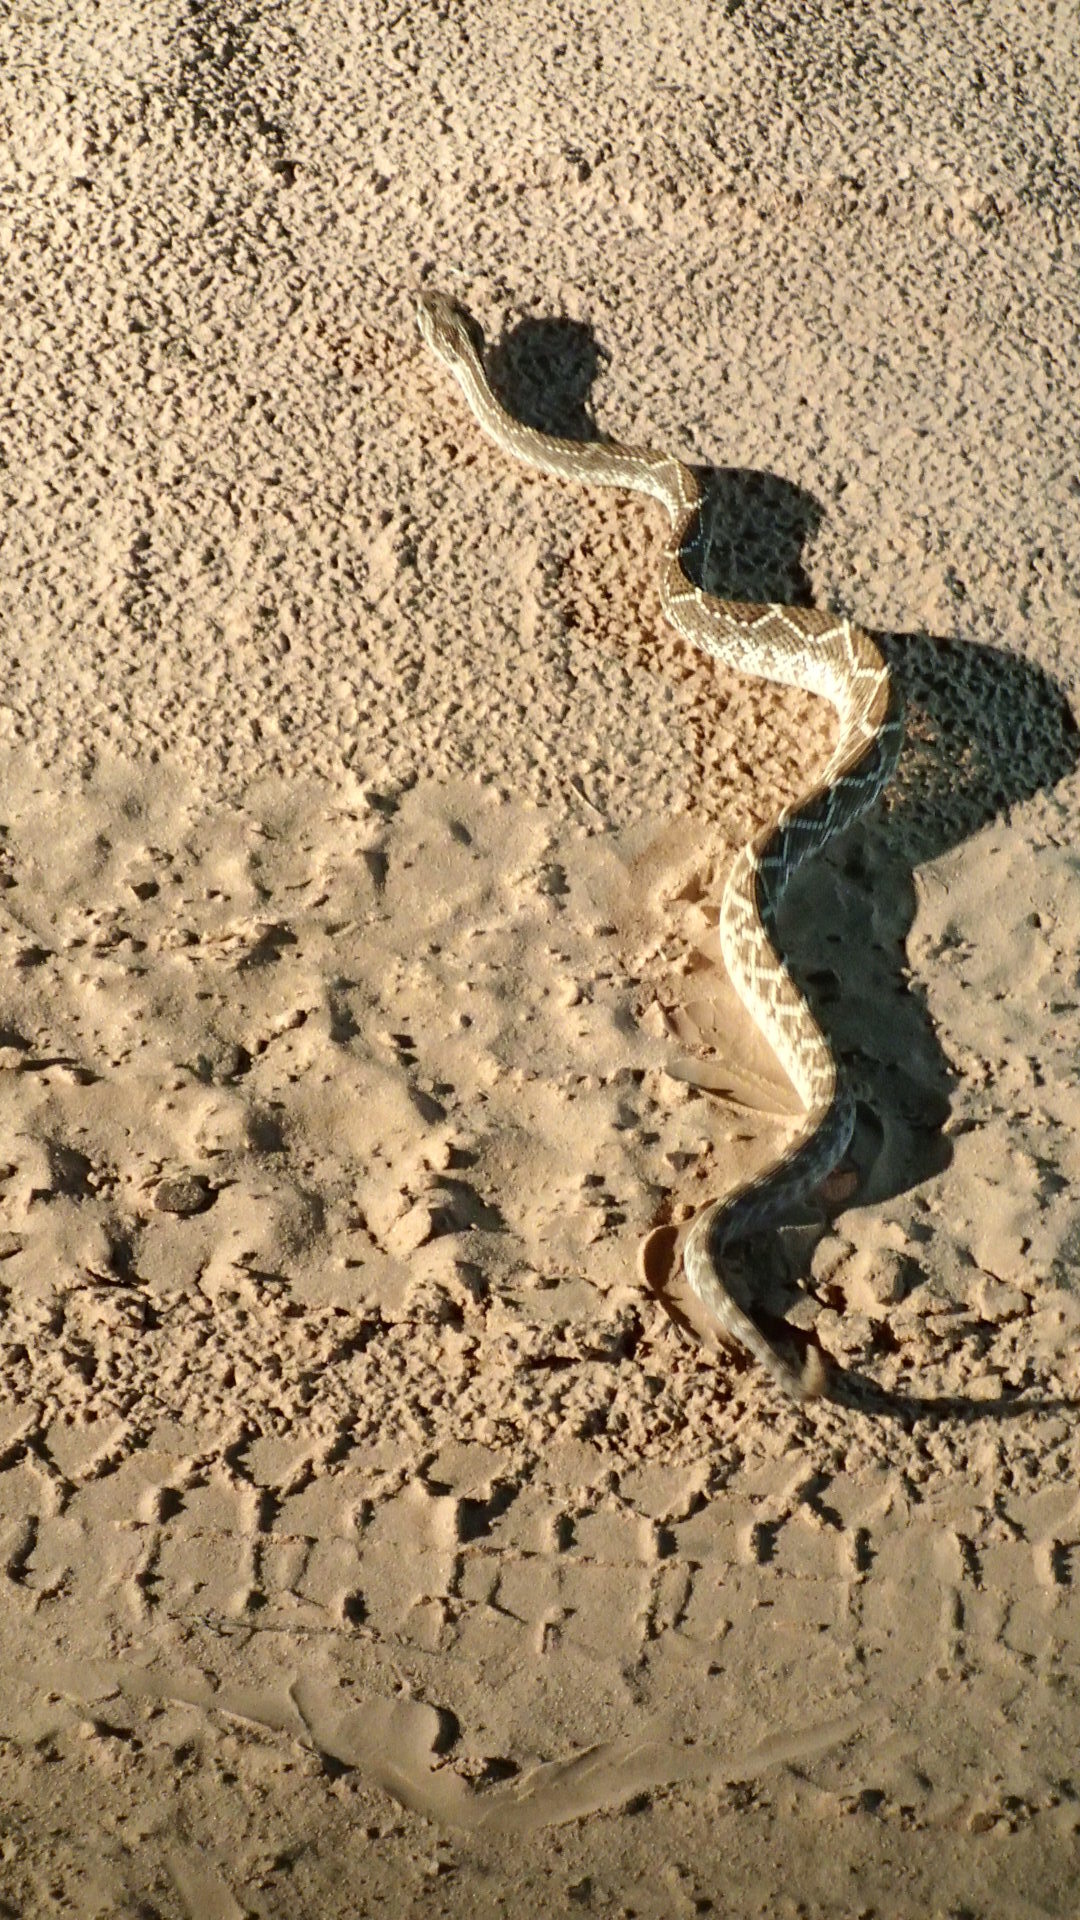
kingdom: Animalia
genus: Crotalus
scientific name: Crotalus durissus
